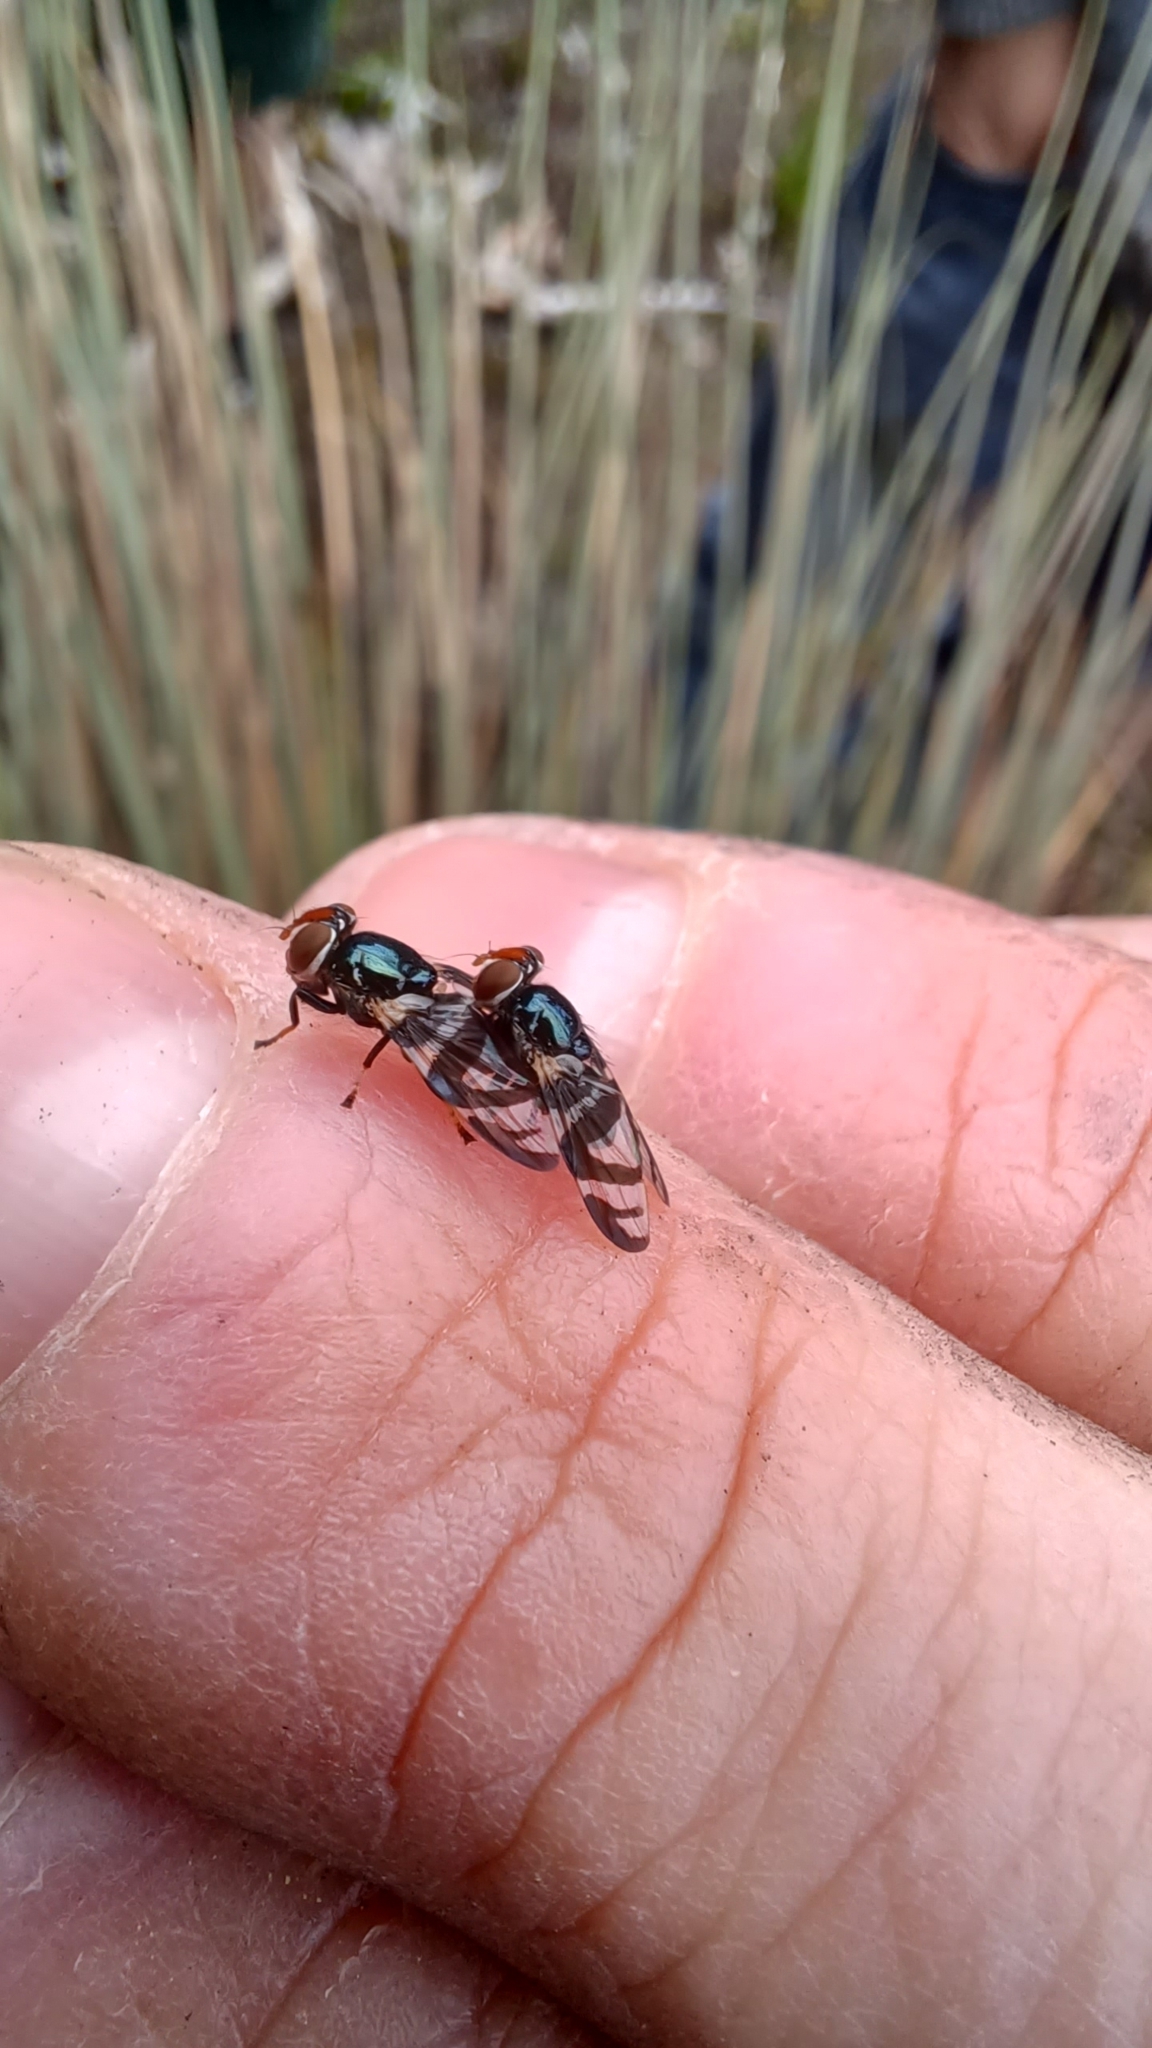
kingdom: Animalia
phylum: Arthropoda
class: Insecta
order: Diptera
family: Platystomatidae
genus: Lenophila
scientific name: Lenophila achilles
